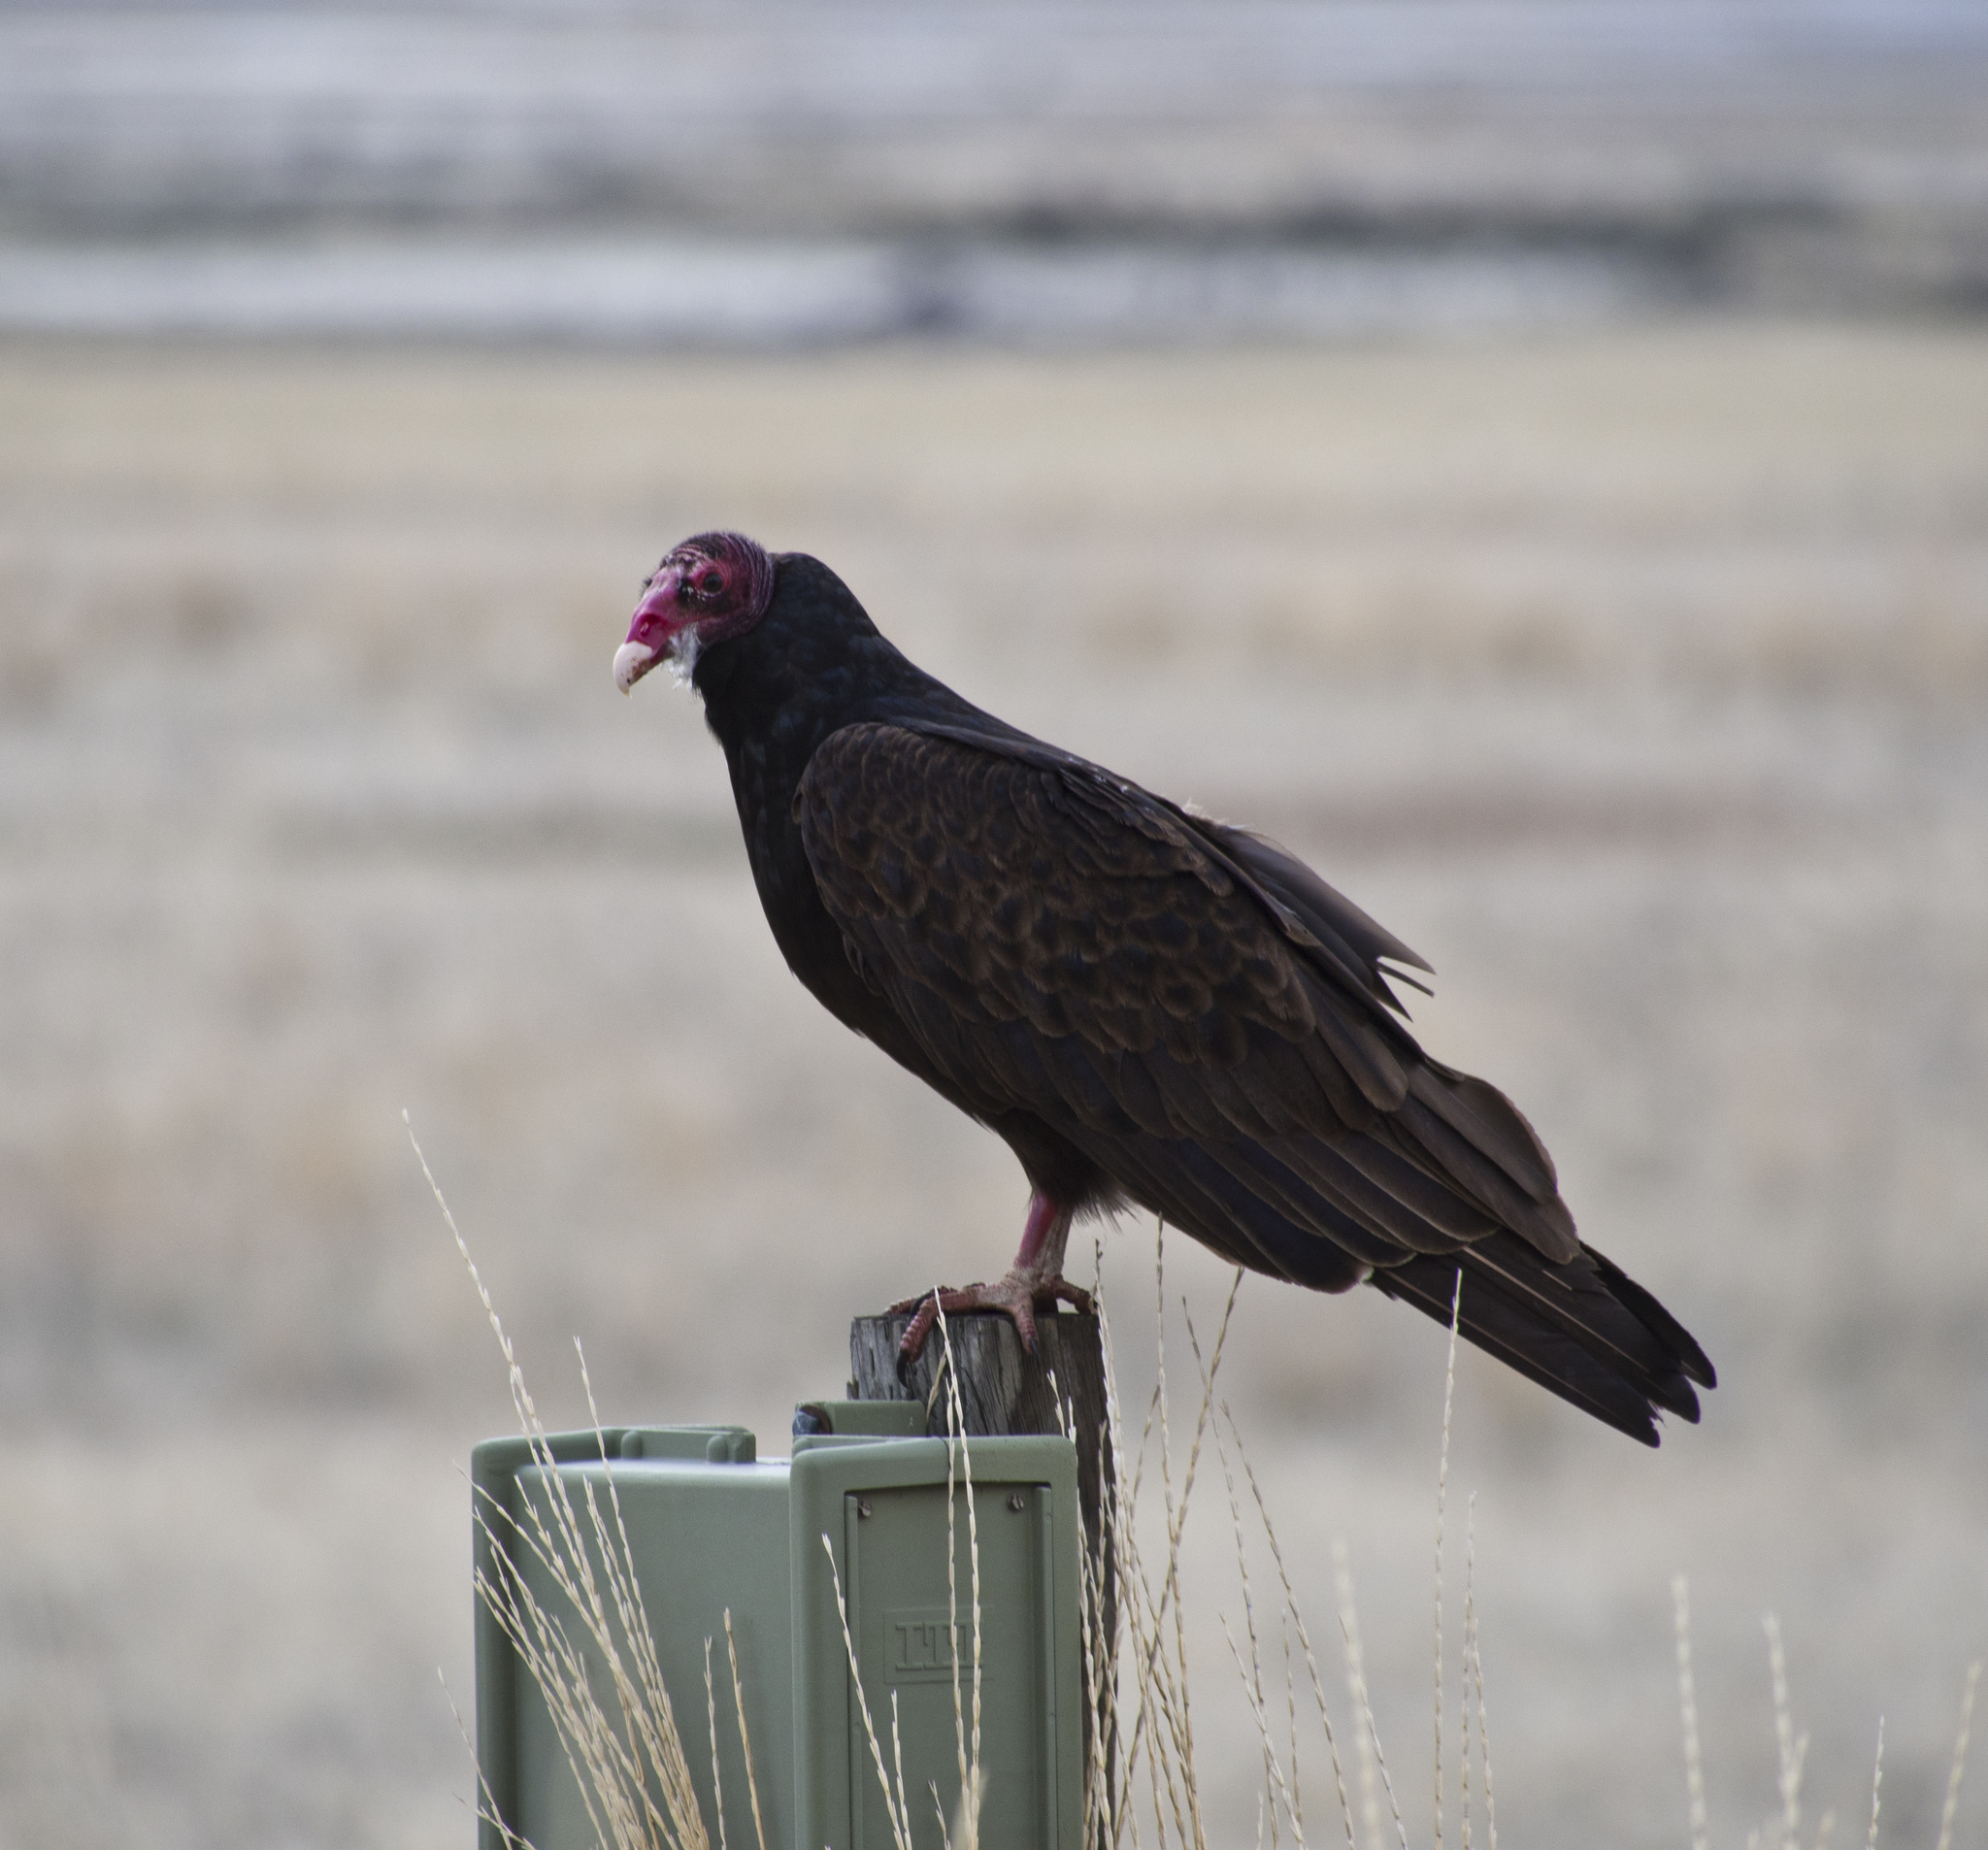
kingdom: Animalia
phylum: Chordata
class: Aves
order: Accipitriformes
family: Cathartidae
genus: Cathartes
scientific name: Cathartes aura
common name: Turkey vulture
